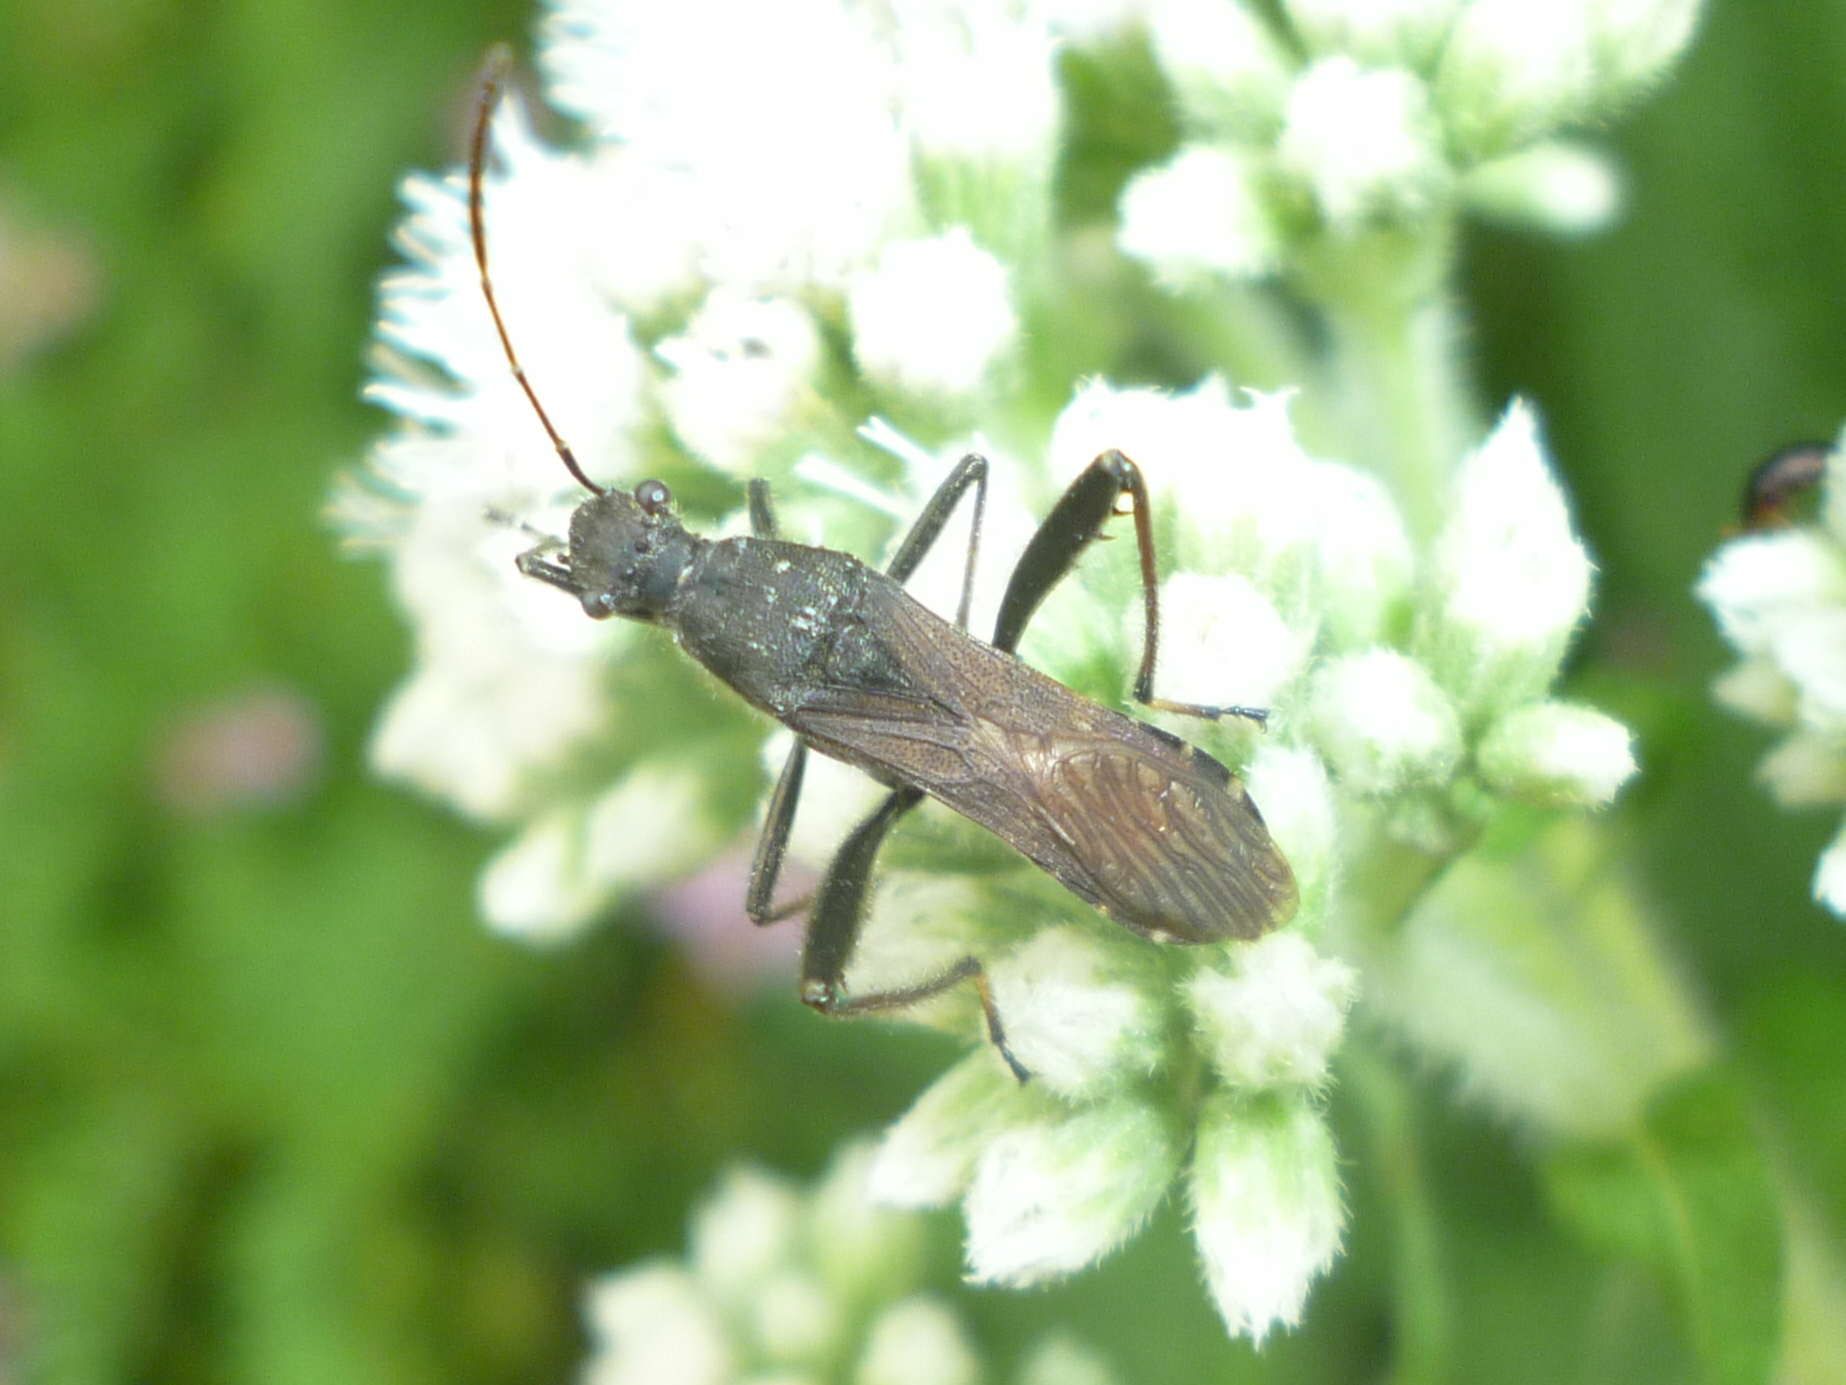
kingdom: Animalia
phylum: Arthropoda
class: Insecta
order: Hemiptera
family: Alydidae
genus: Alydus
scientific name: Alydus eurinus
